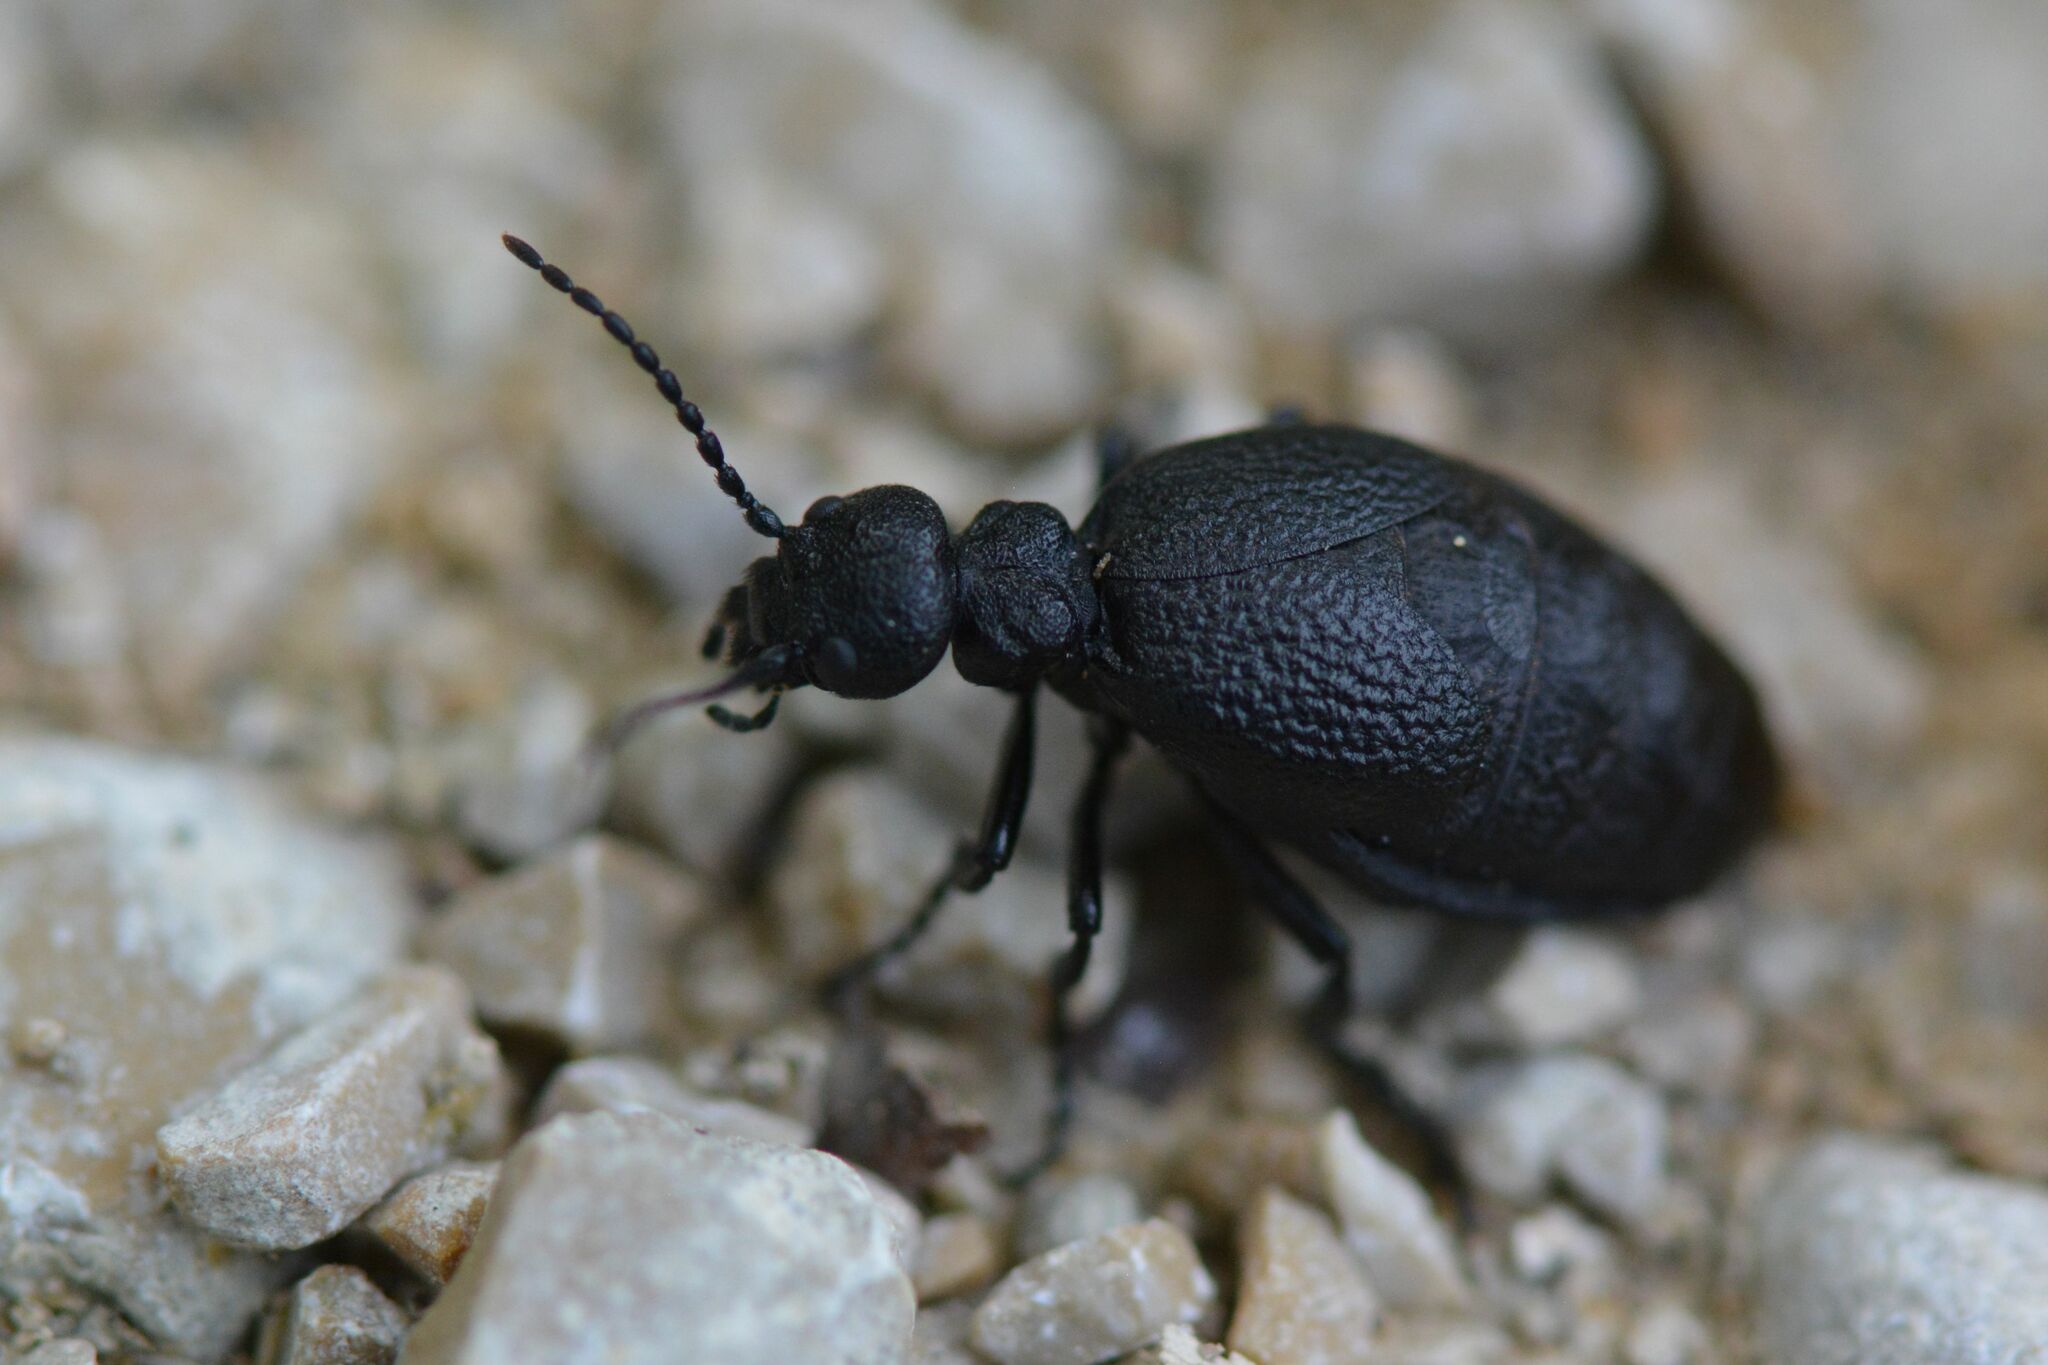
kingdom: Animalia
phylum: Arthropoda
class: Insecta
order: Coleoptera
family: Meloidae
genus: Meloe
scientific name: Meloe rugosus
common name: Rugged oil-beetle
